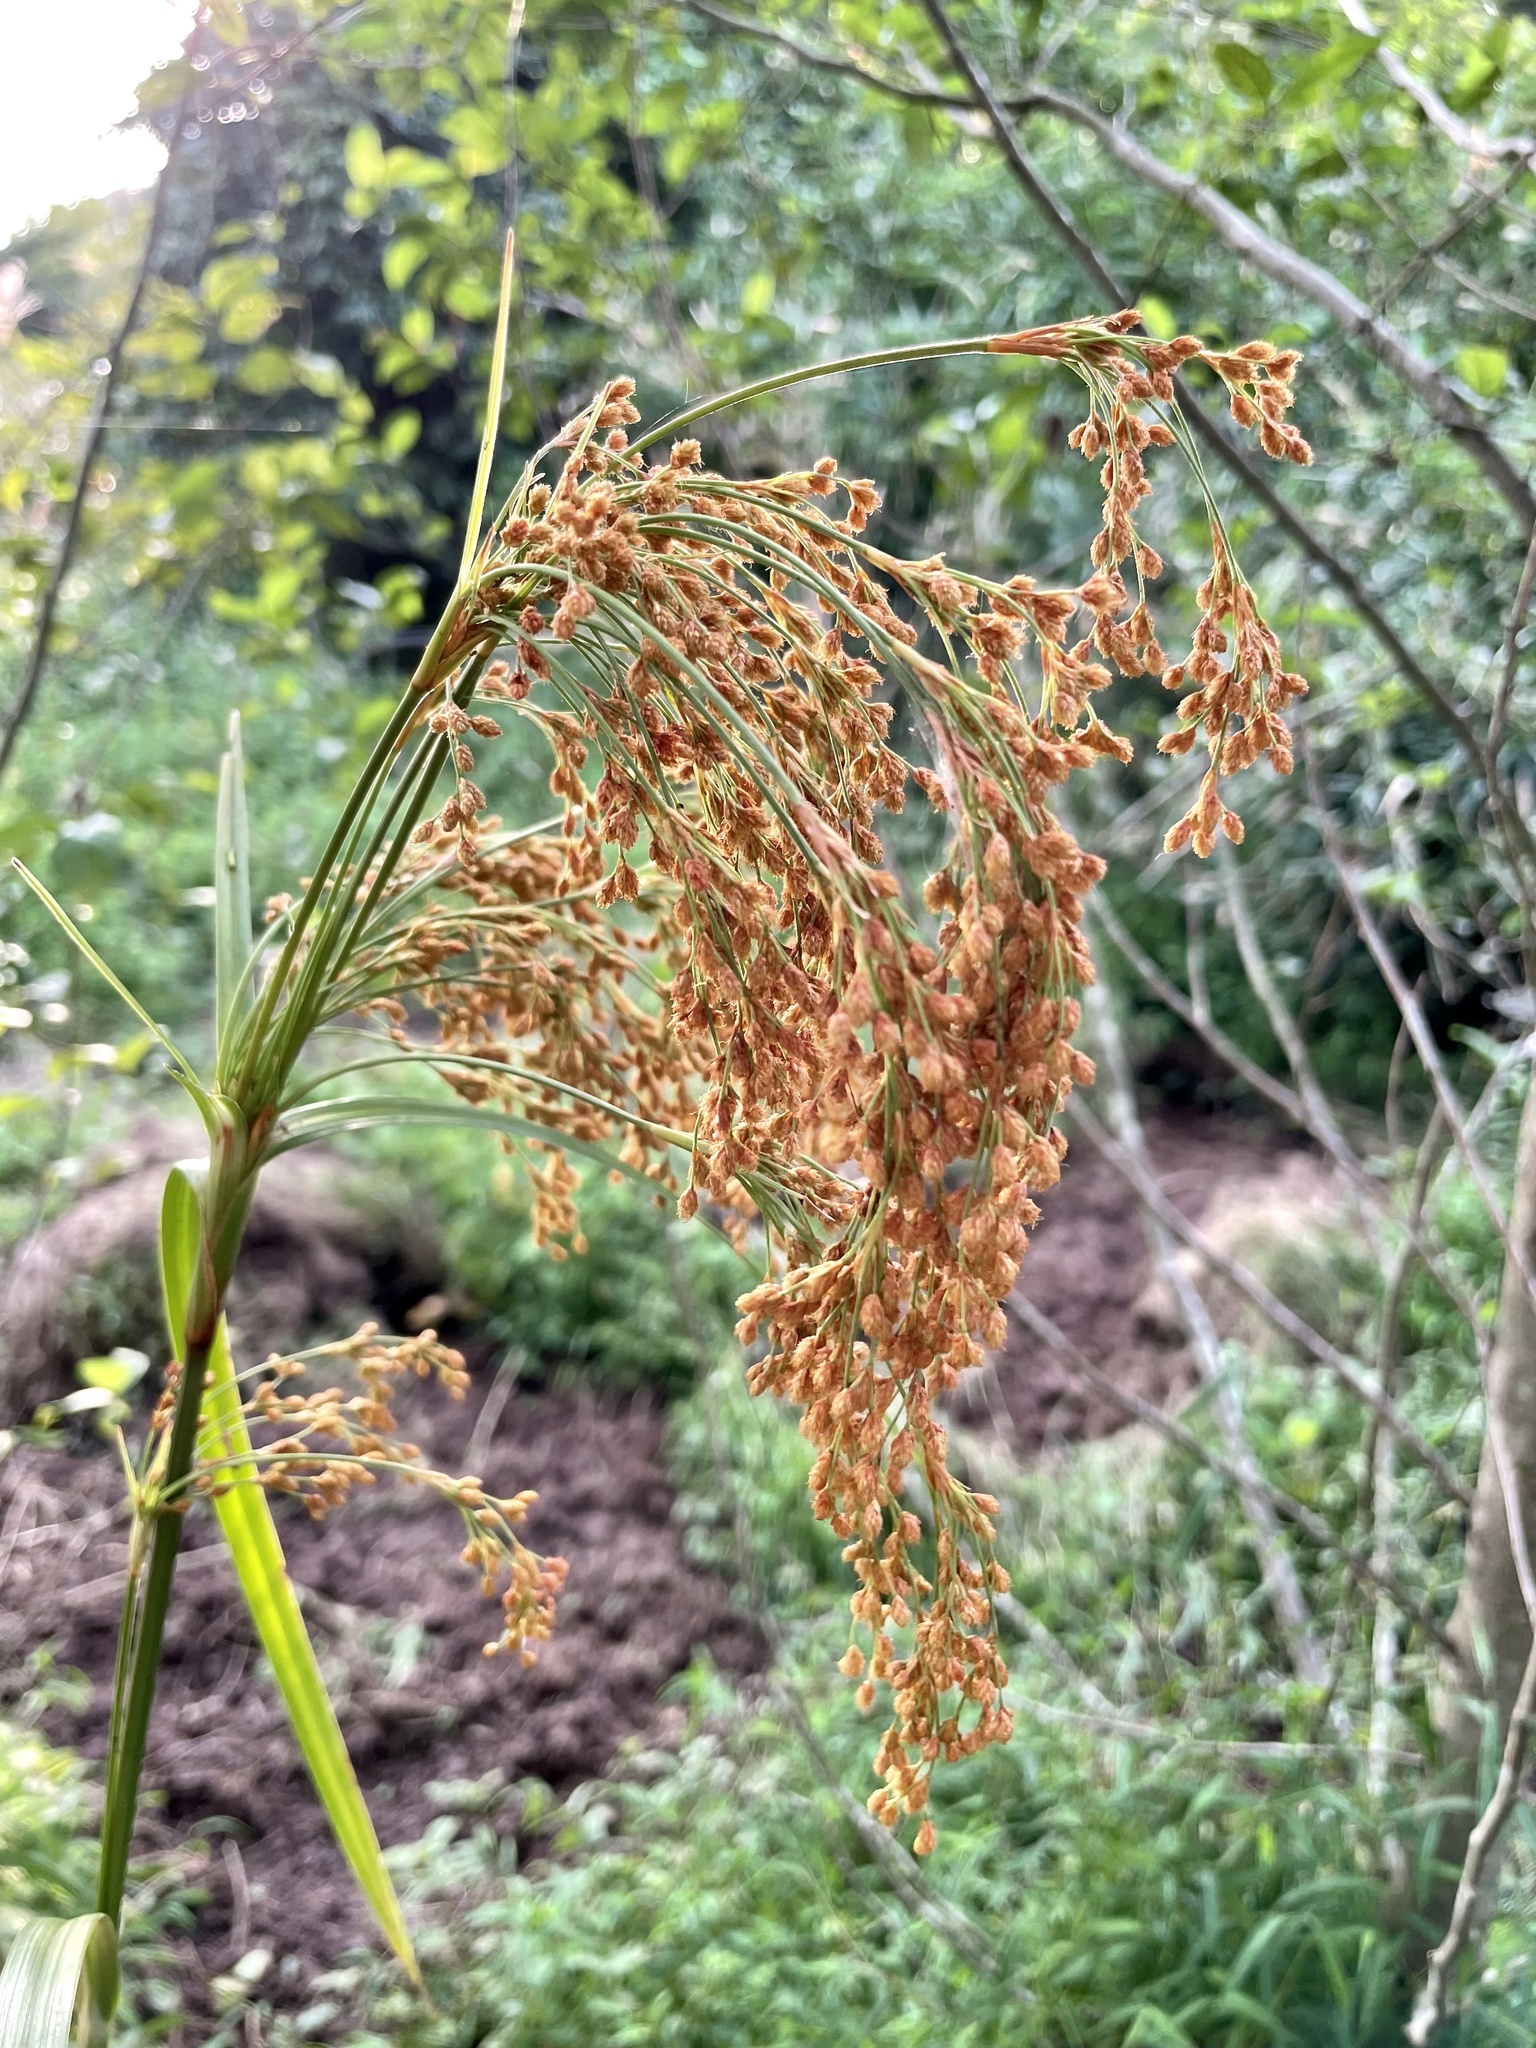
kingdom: Plantae
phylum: Tracheophyta
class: Liliopsida
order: Poales
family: Cyperaceae
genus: Scirpus
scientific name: Scirpus wichurae
